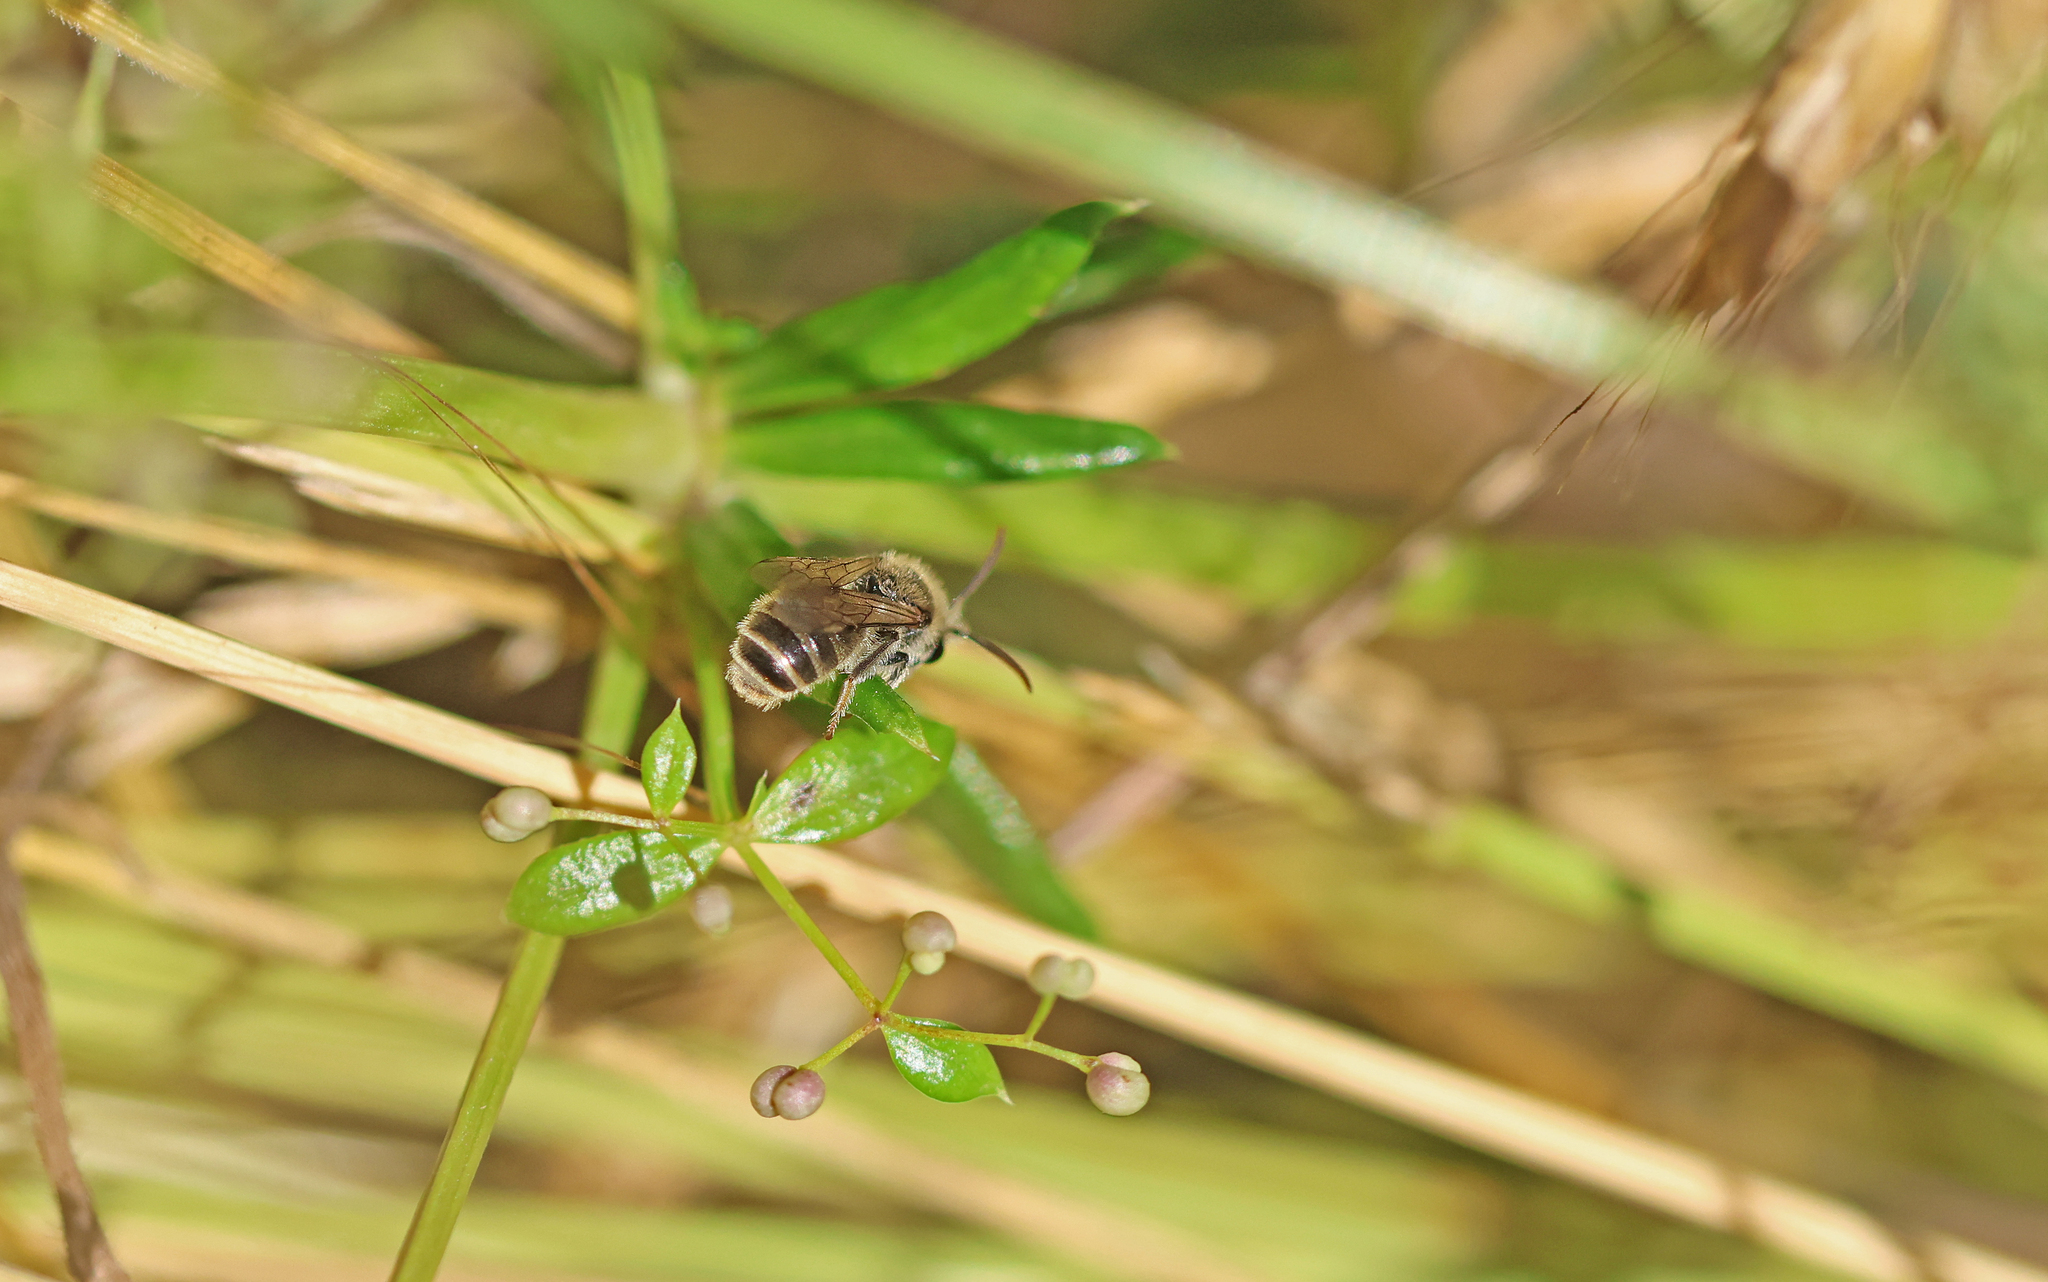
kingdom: Animalia
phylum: Arthropoda
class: Insecta
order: Hymenoptera
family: Halictidae
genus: Rophites
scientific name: Rophites canus
